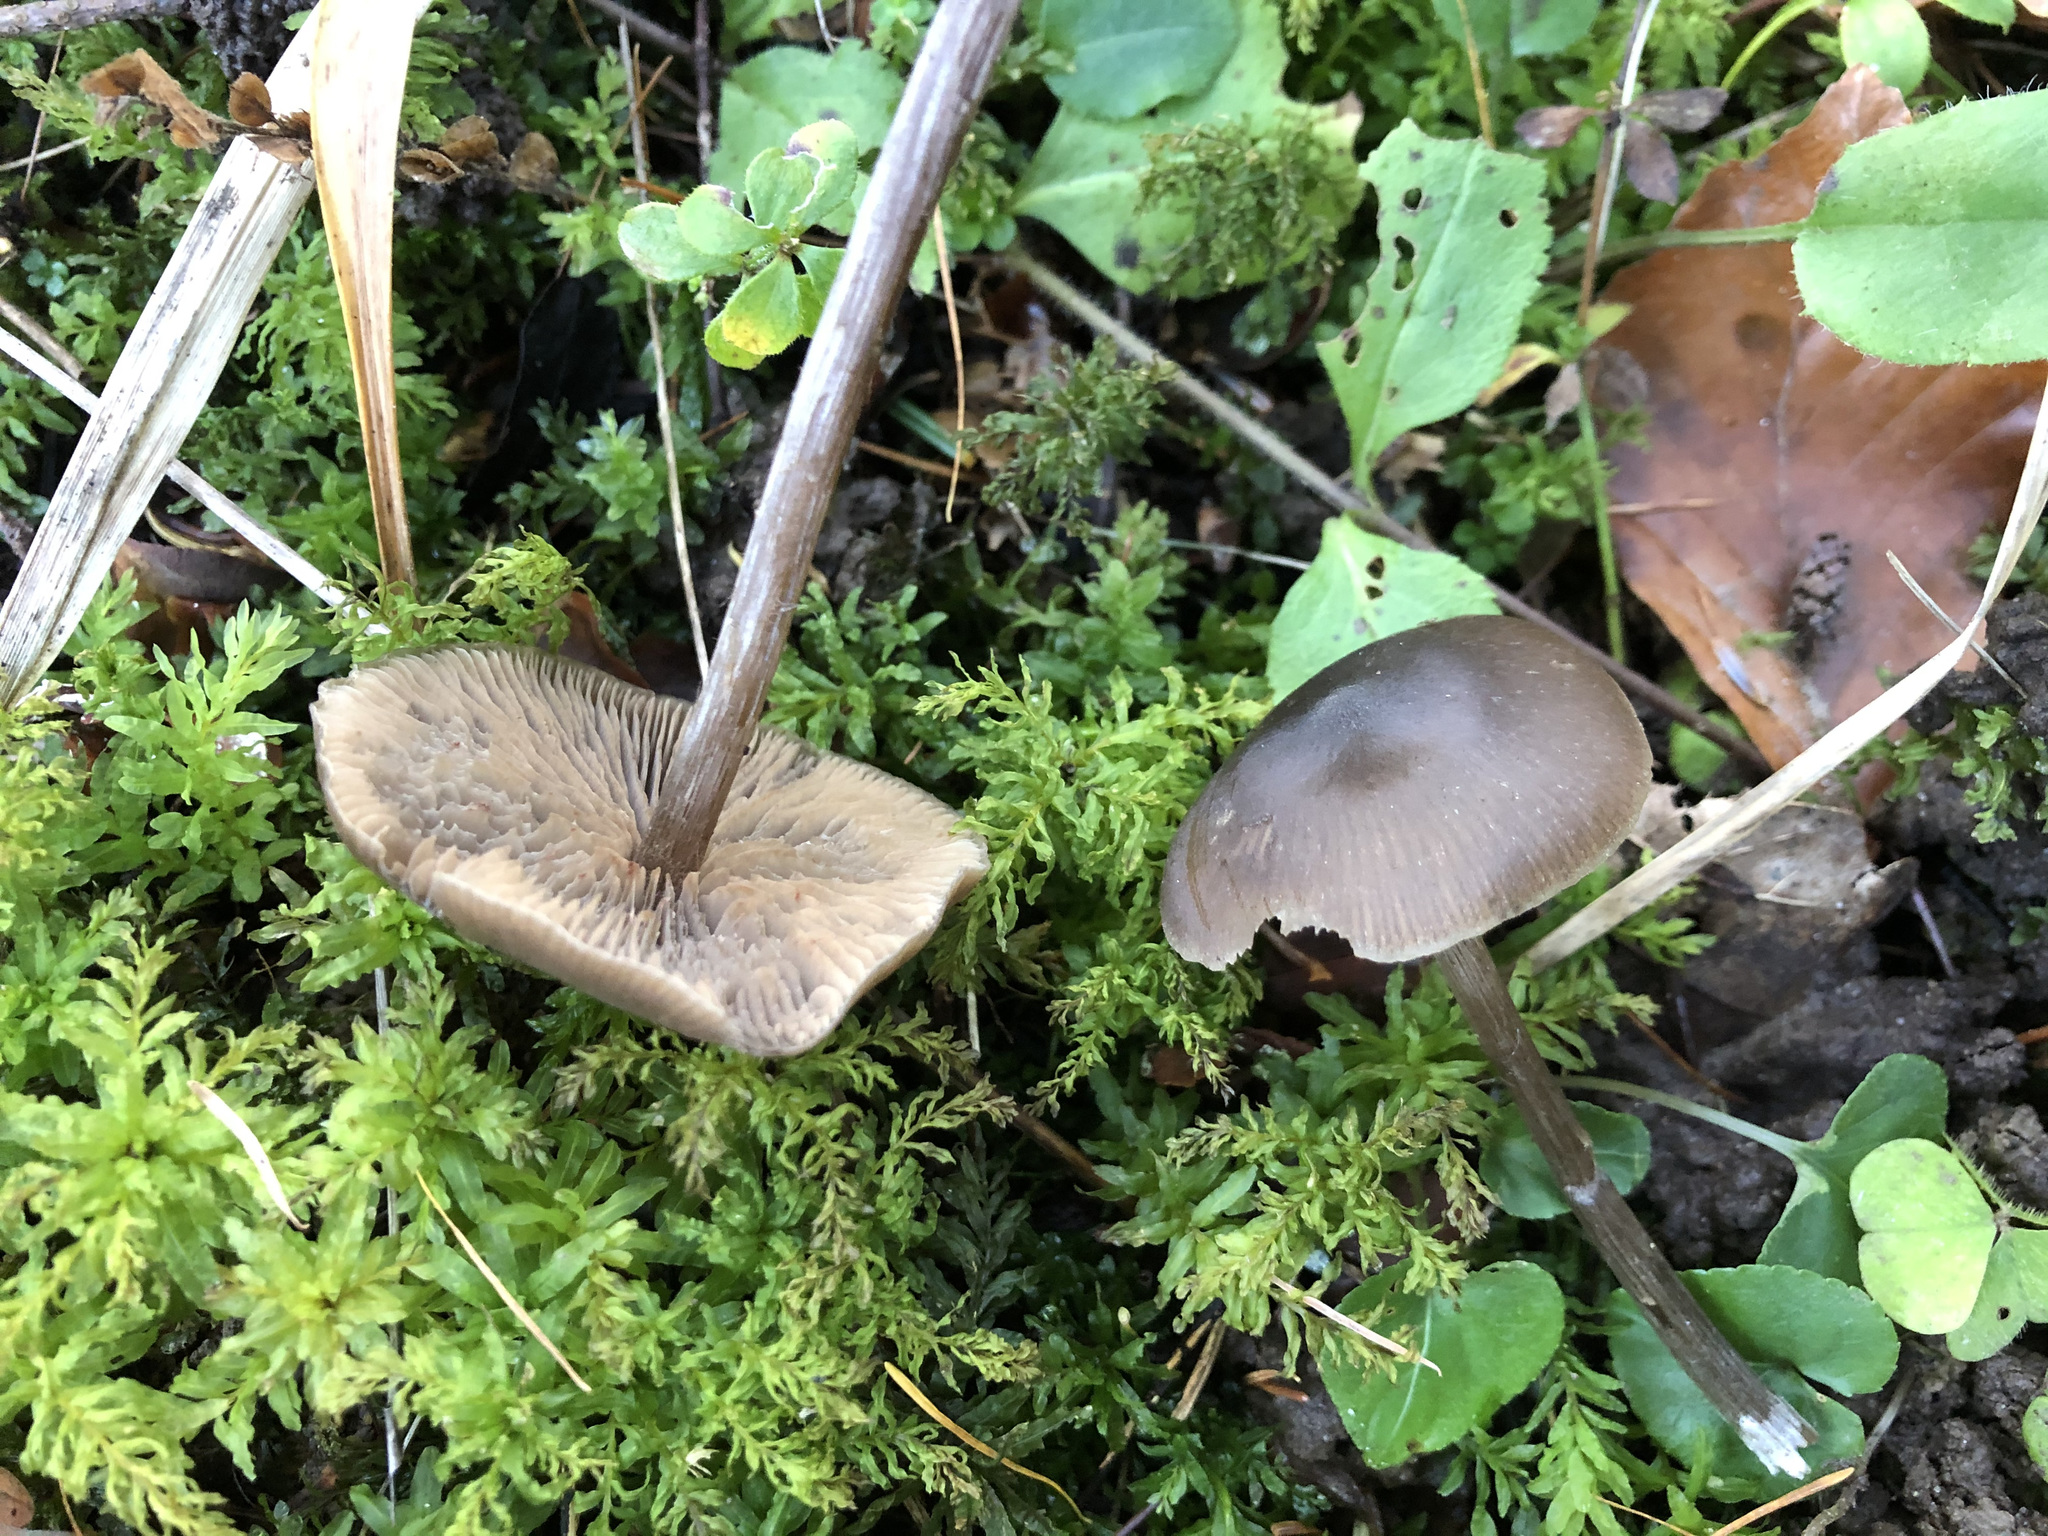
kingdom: Fungi
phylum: Basidiomycota
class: Agaricomycetes
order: Agaricales
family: Entolomataceae
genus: Entoloma
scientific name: Entoloma minutum
